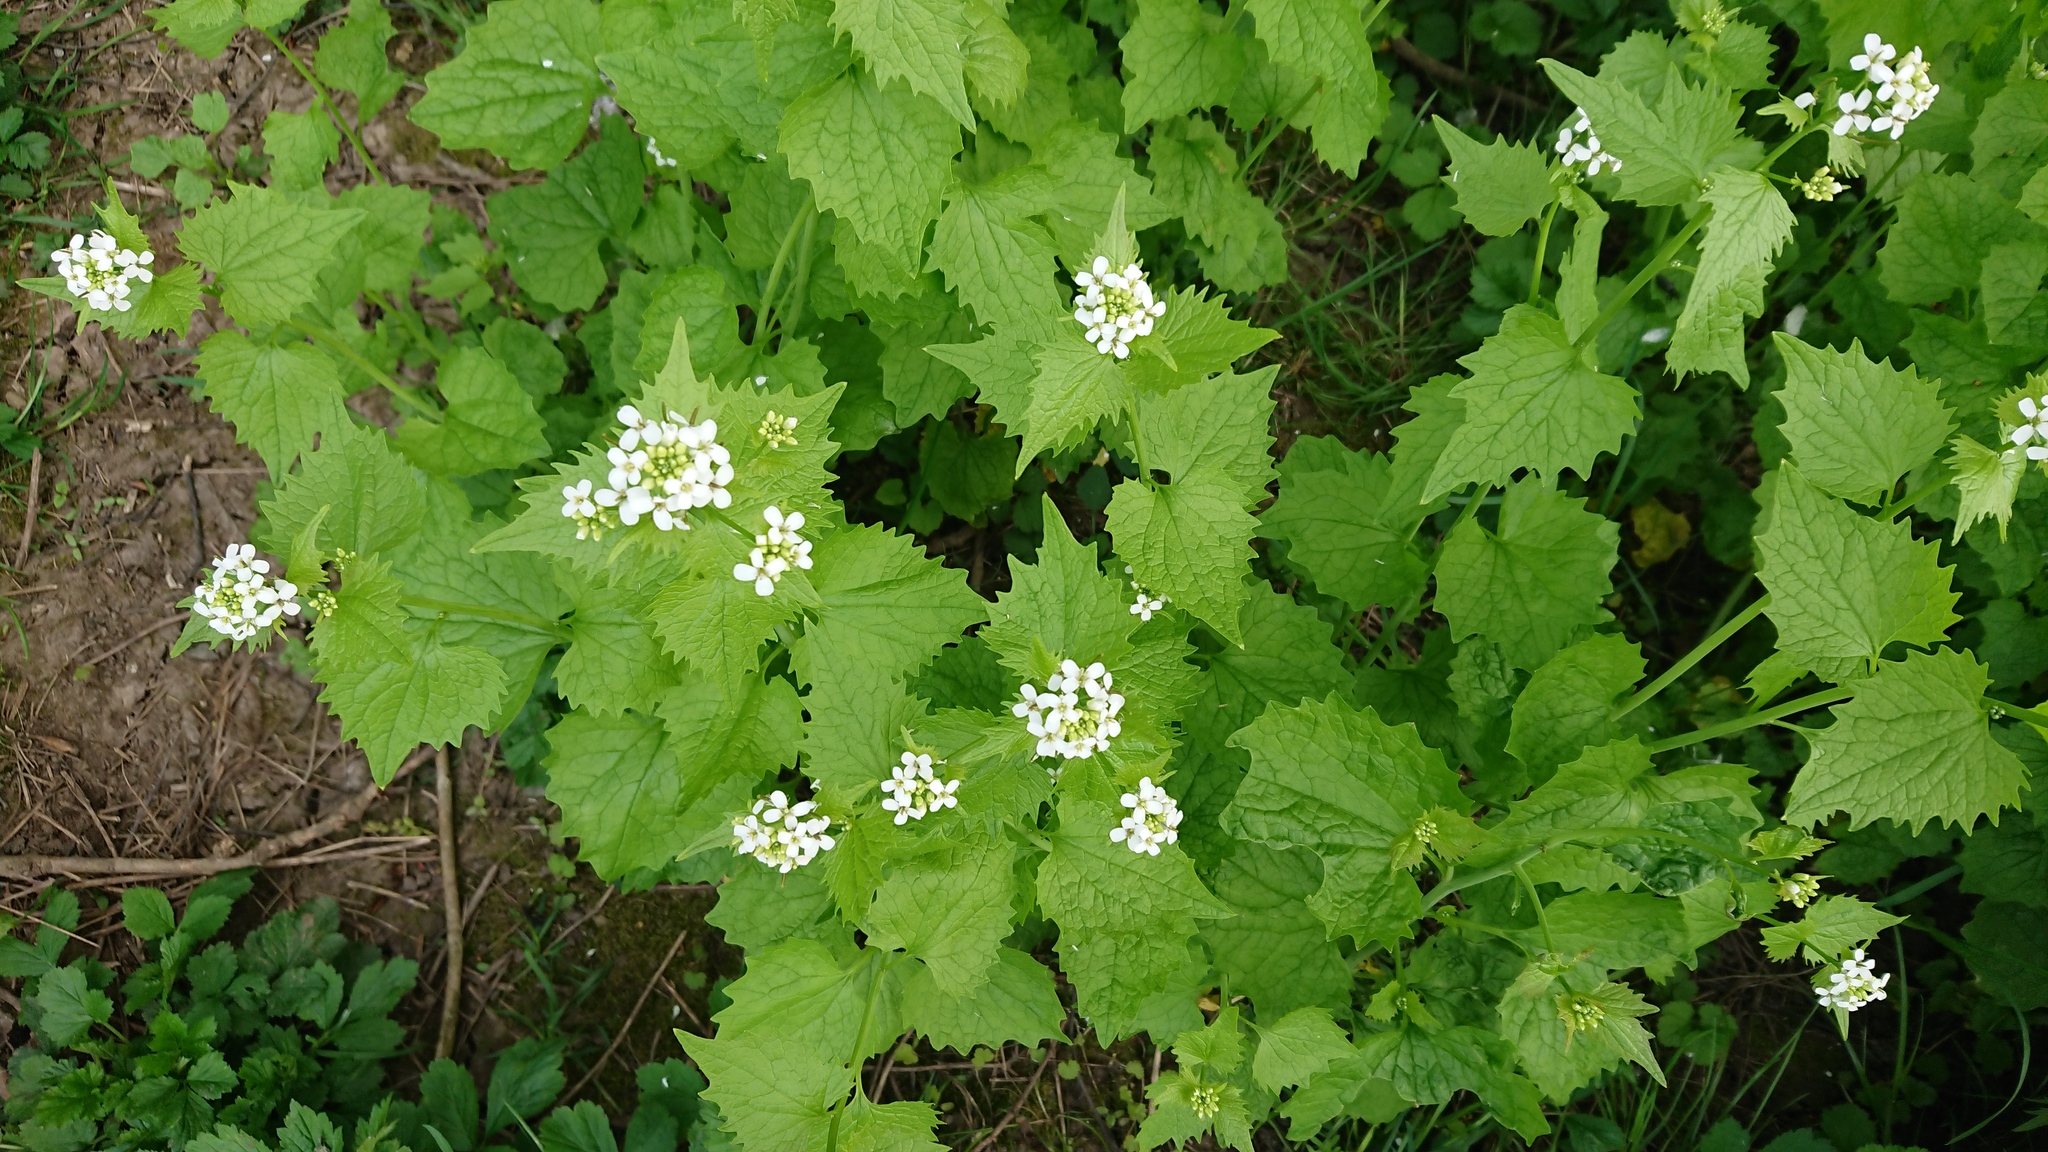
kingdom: Plantae
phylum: Tracheophyta
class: Magnoliopsida
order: Brassicales
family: Brassicaceae
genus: Alliaria
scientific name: Alliaria petiolata
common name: Garlic mustard
